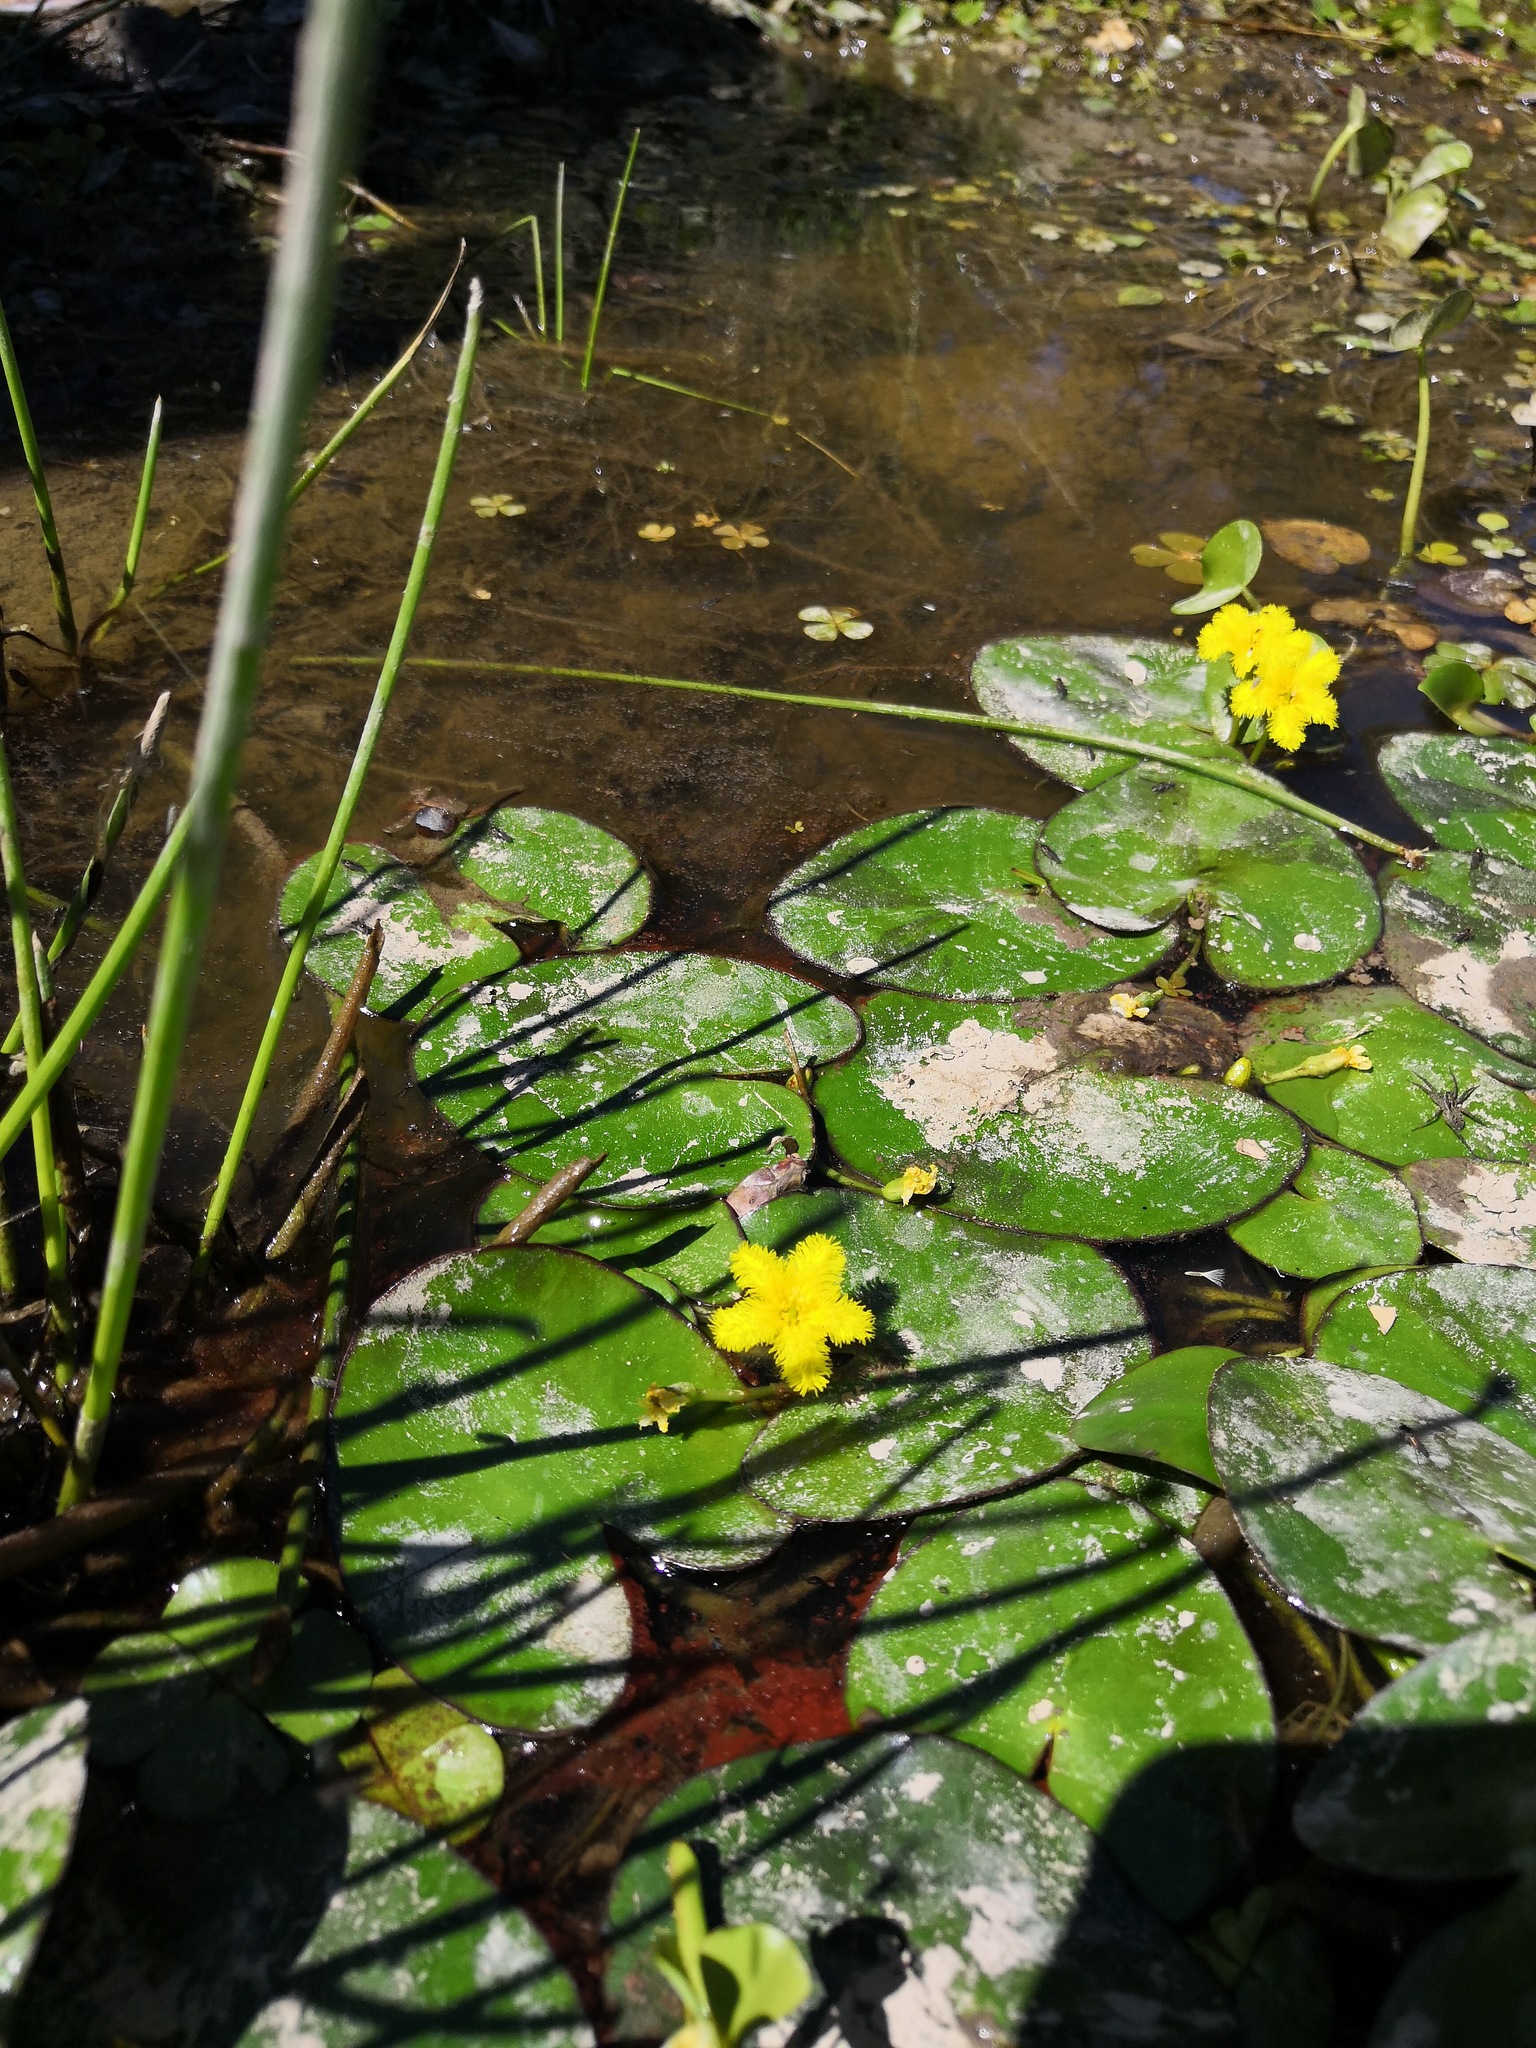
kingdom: Plantae
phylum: Tracheophyta
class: Magnoliopsida
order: Asterales
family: Menyanthaceae
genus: Nymphoides
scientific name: Nymphoides fallax
